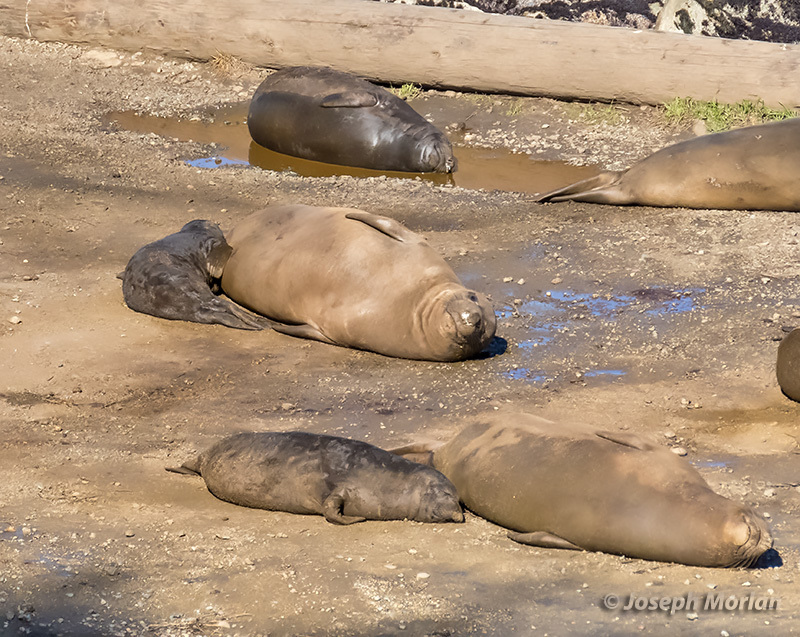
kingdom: Animalia
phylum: Chordata
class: Mammalia
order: Carnivora
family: Phocidae
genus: Mirounga
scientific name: Mirounga angustirostris
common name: Northern elephant seal
